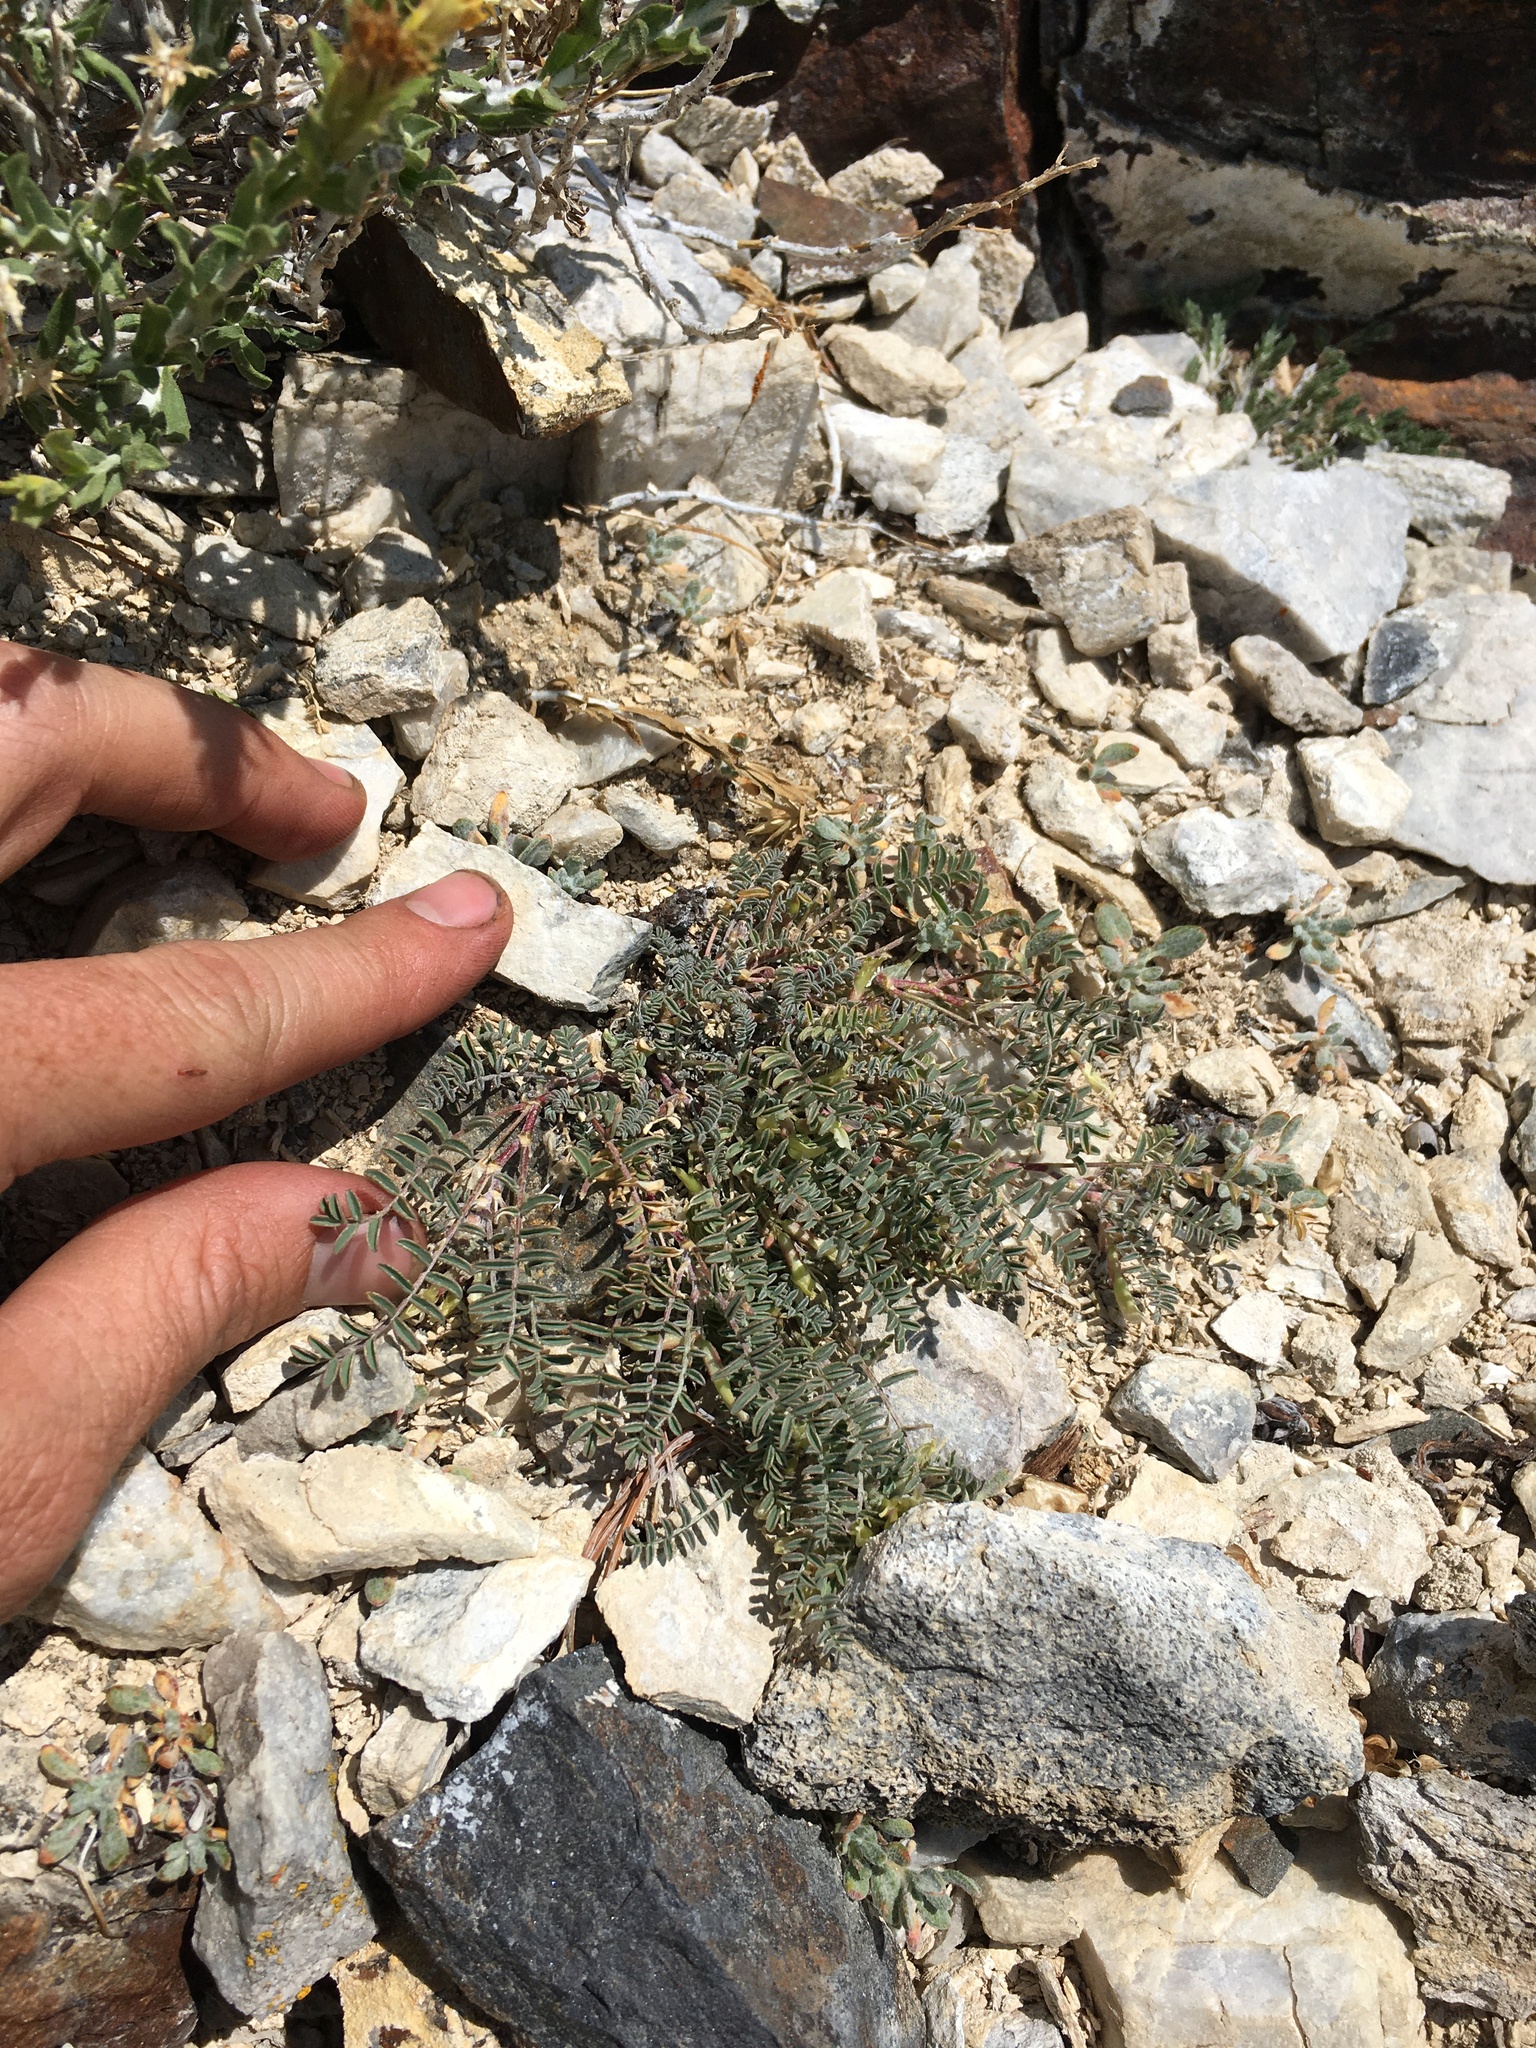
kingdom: Plantae
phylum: Tracheophyta
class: Magnoliopsida
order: Fabales
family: Fabaceae
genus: Astragalus
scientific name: Astragalus lentiginosus
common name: Freckled milkvetch
